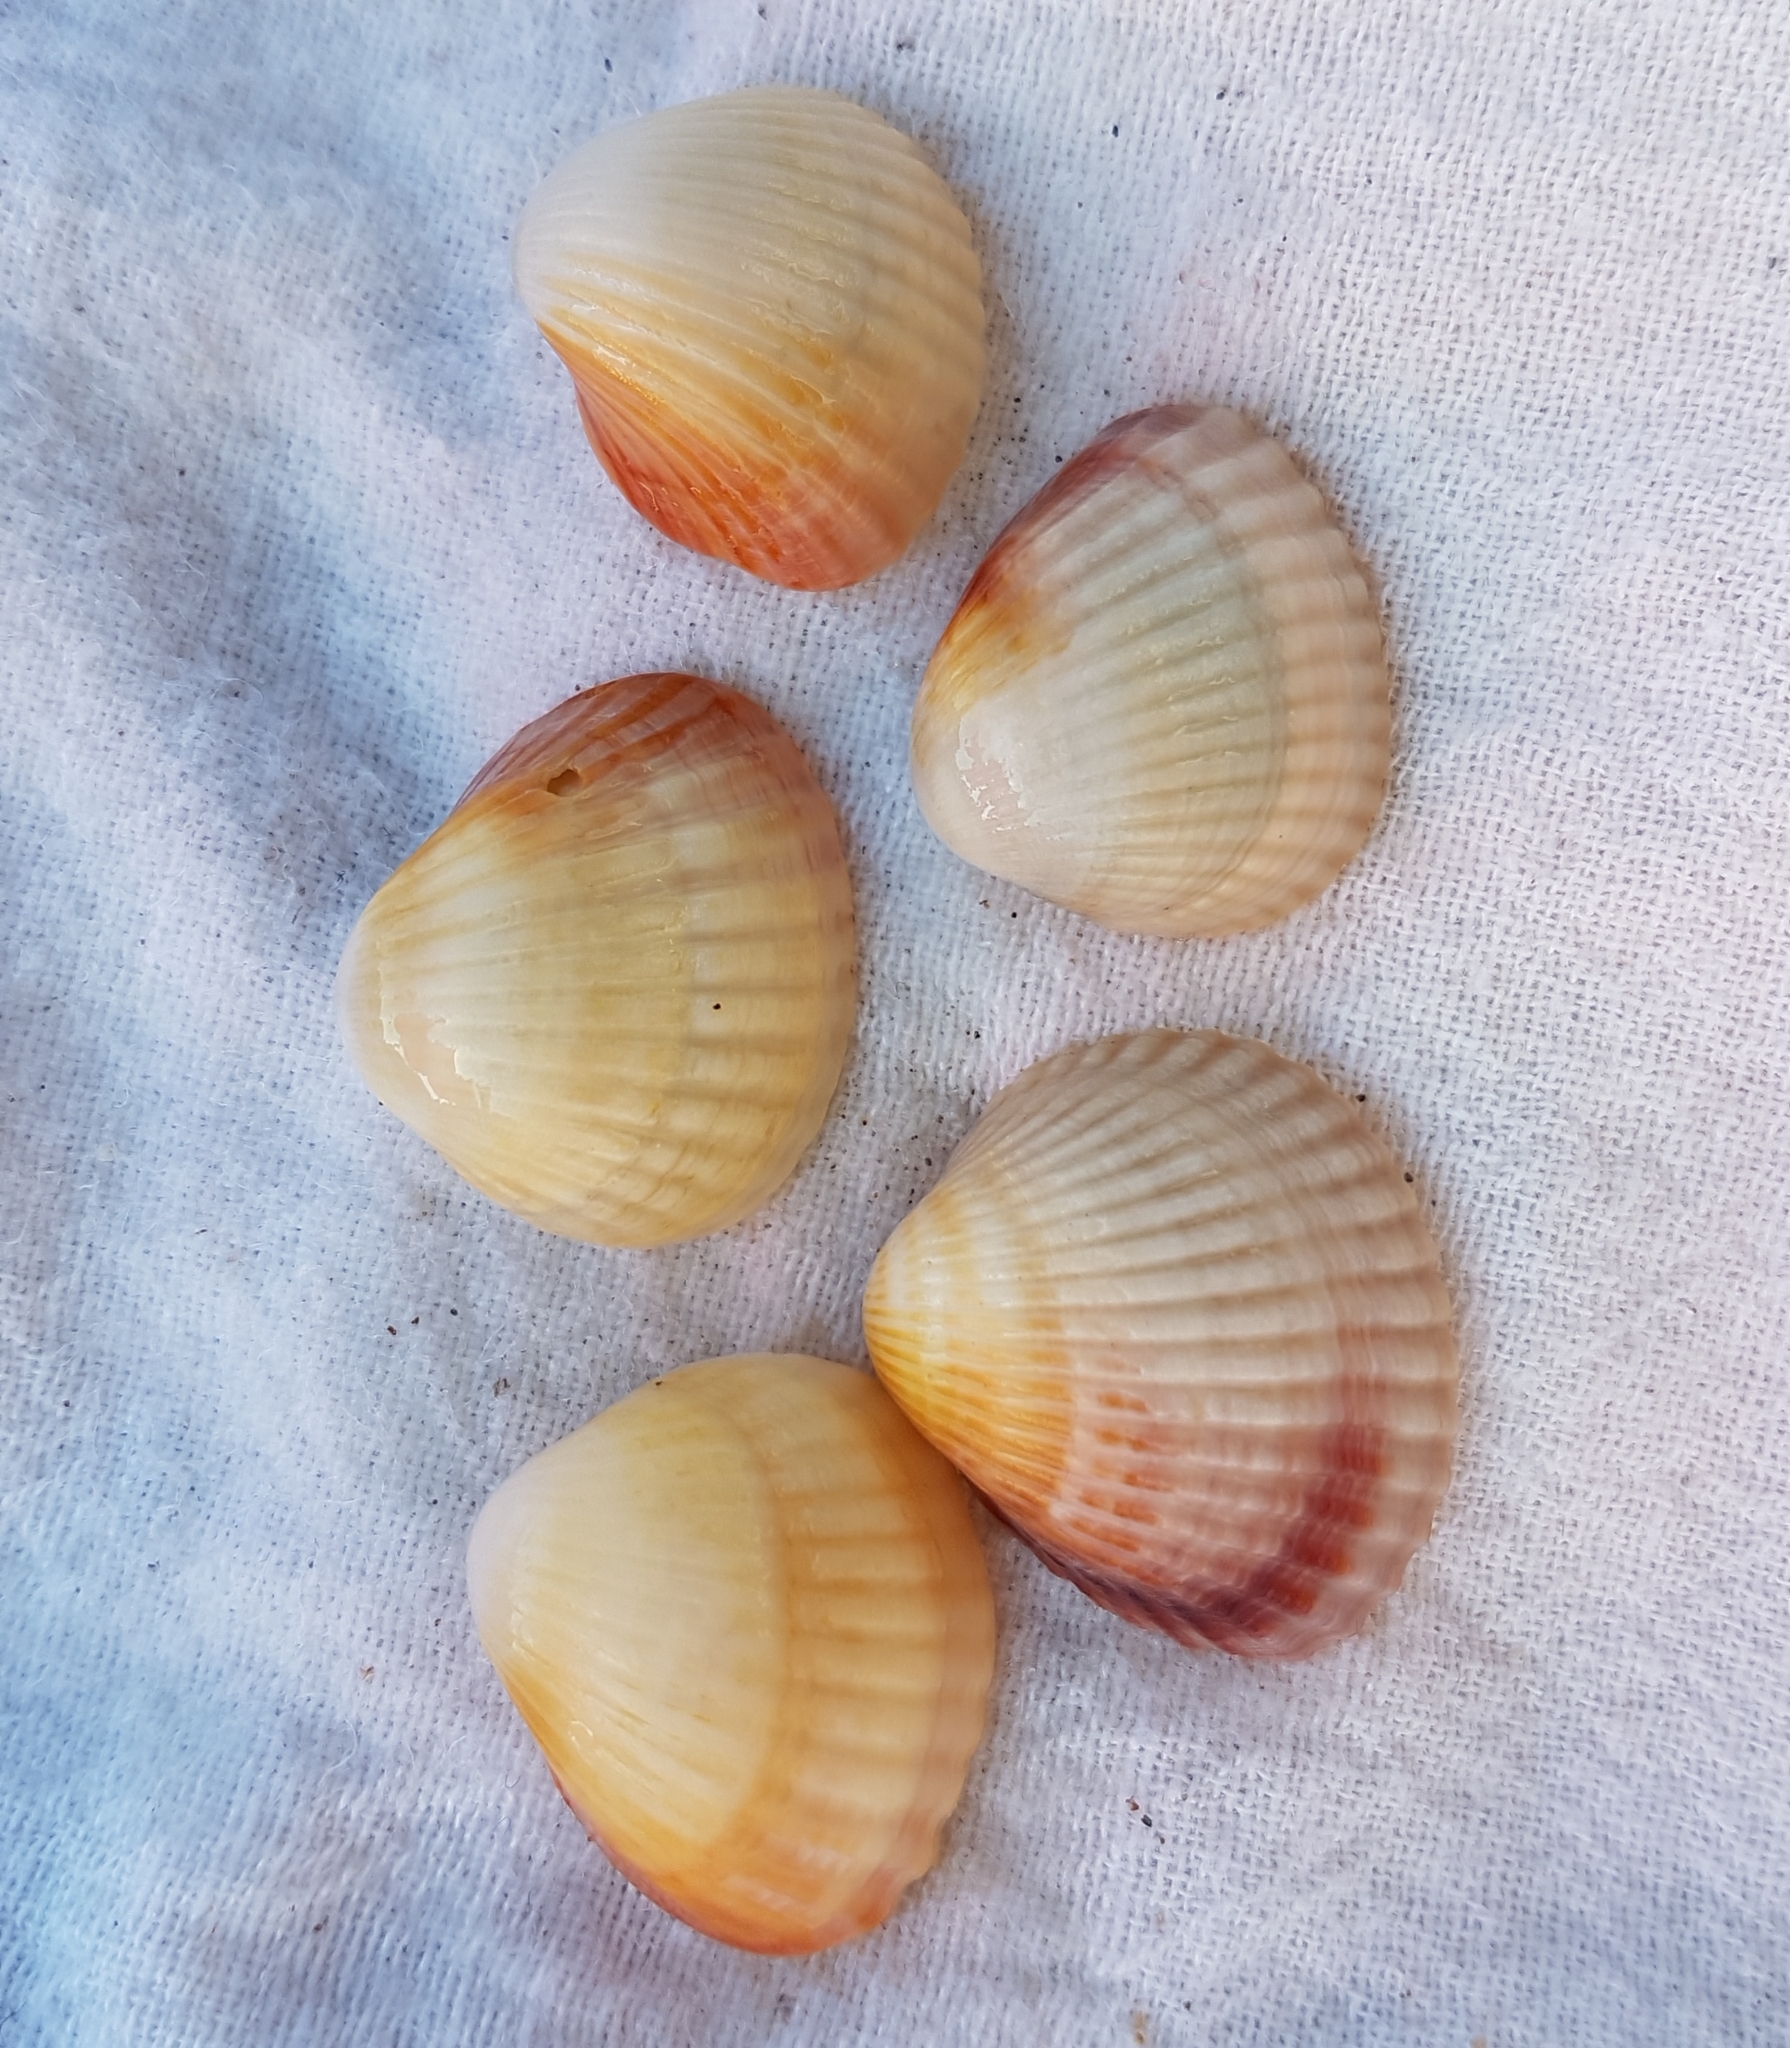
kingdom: Animalia
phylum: Mollusca
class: Bivalvia
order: Cardiida
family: Cardiidae
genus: Cerastoderma
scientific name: Cerastoderma glaucum
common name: Lagoon cockle
